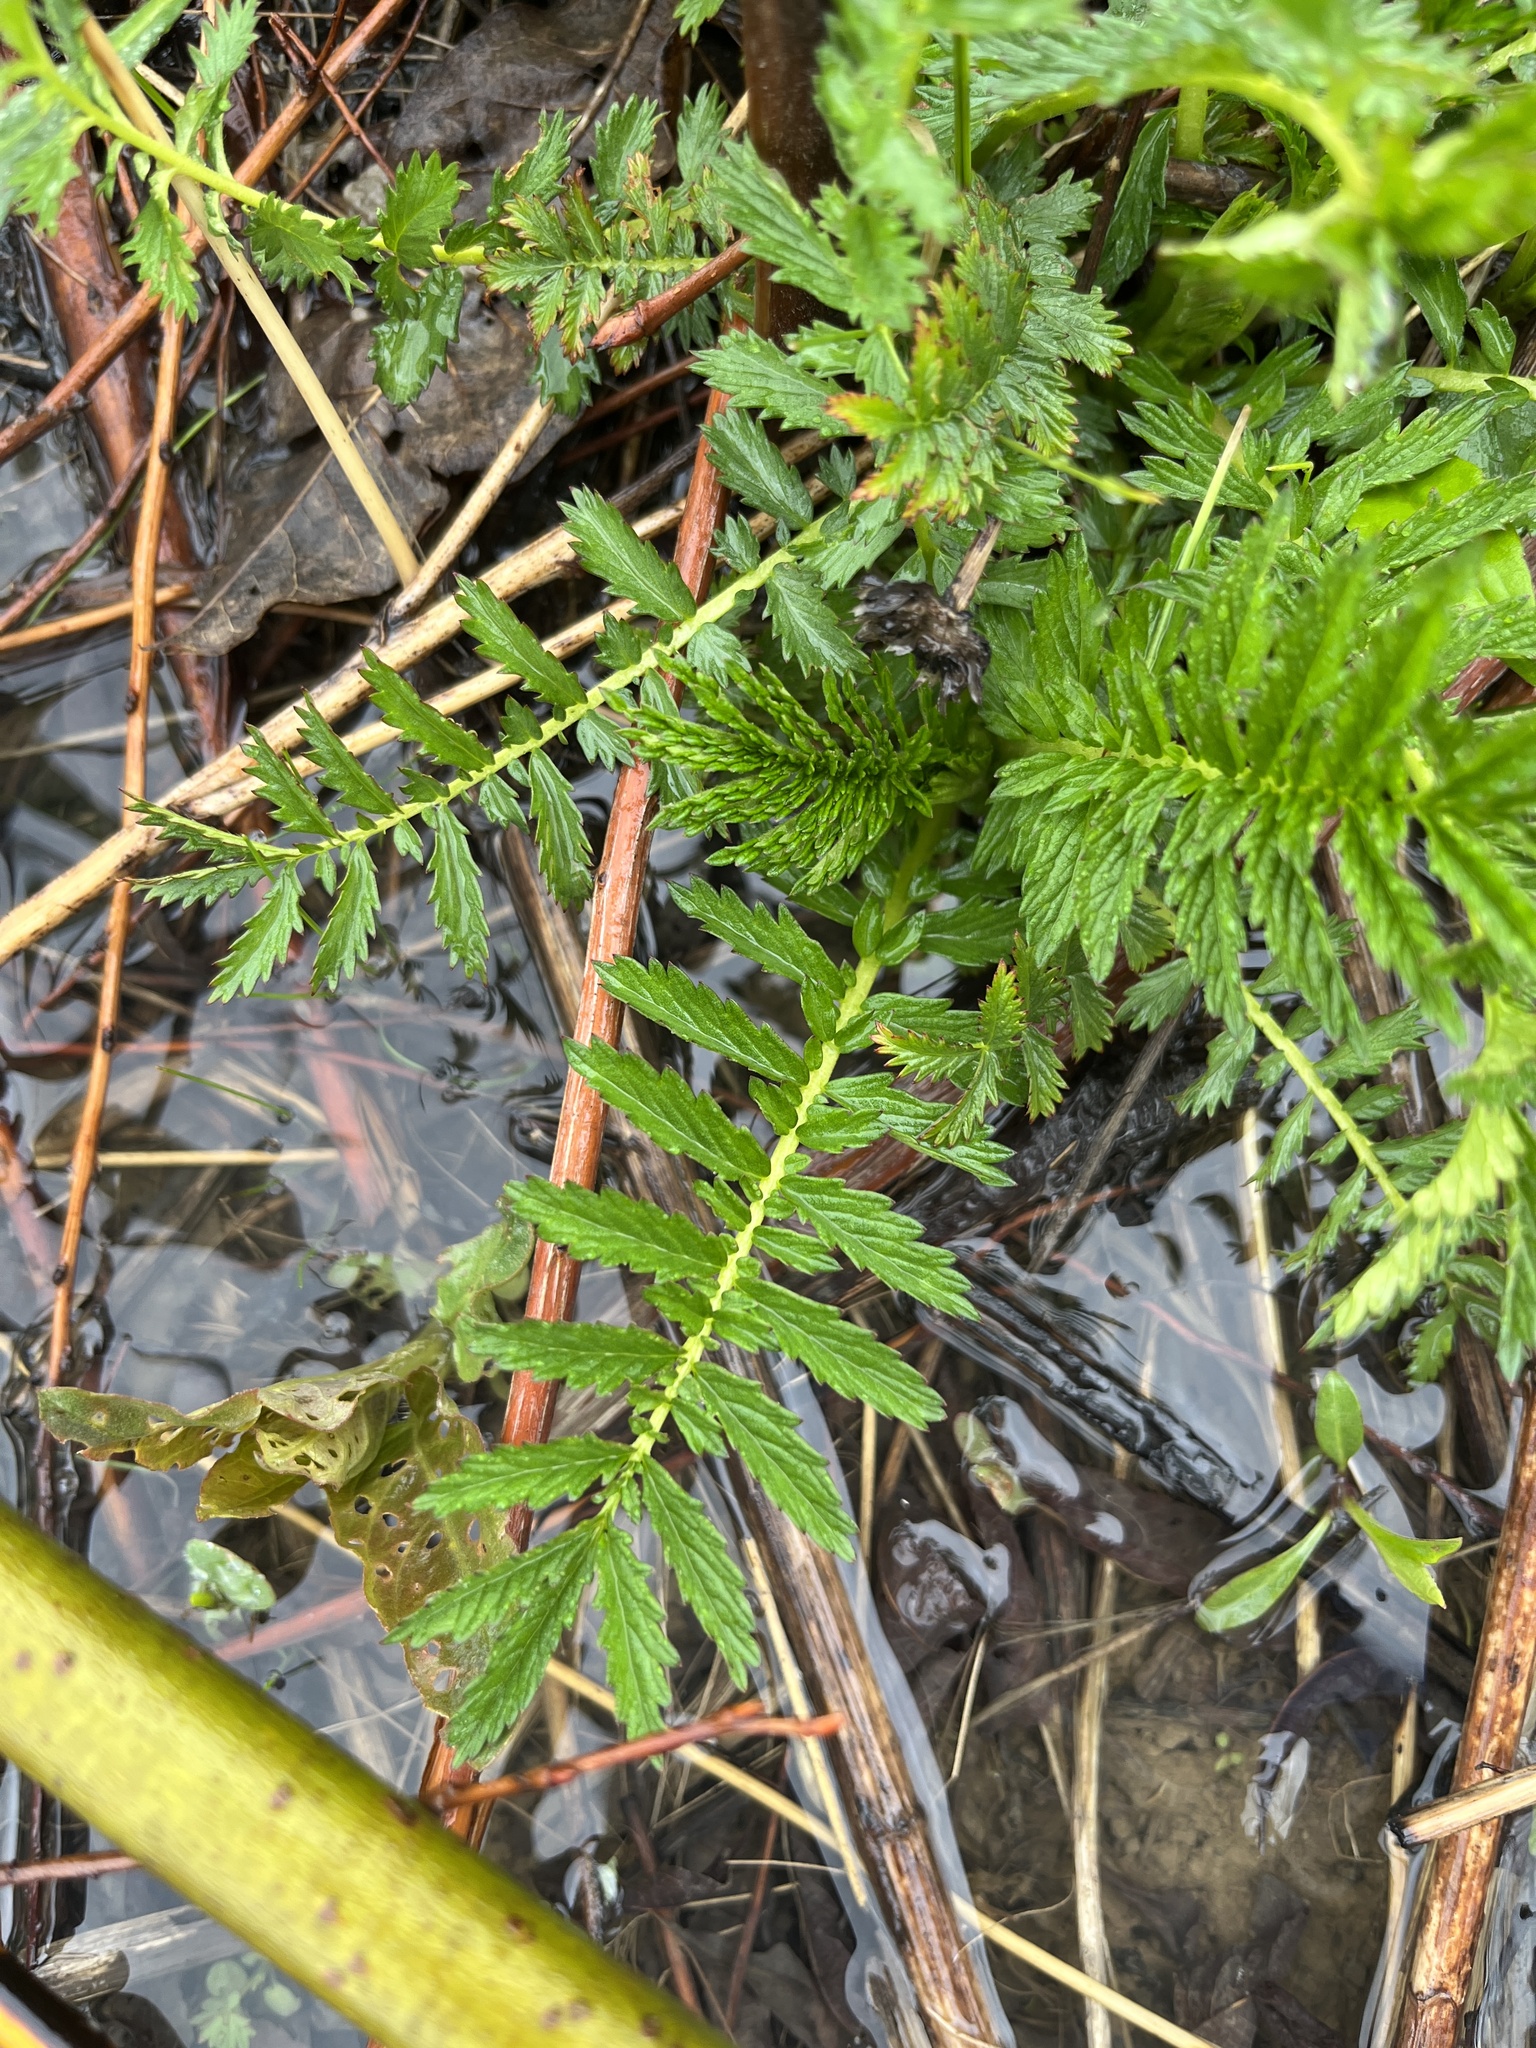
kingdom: Plantae
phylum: Tracheophyta
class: Magnoliopsida
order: Rosales
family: Rosaceae
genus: Agrimonia
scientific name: Agrimonia parviflora
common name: Harvest-lice
